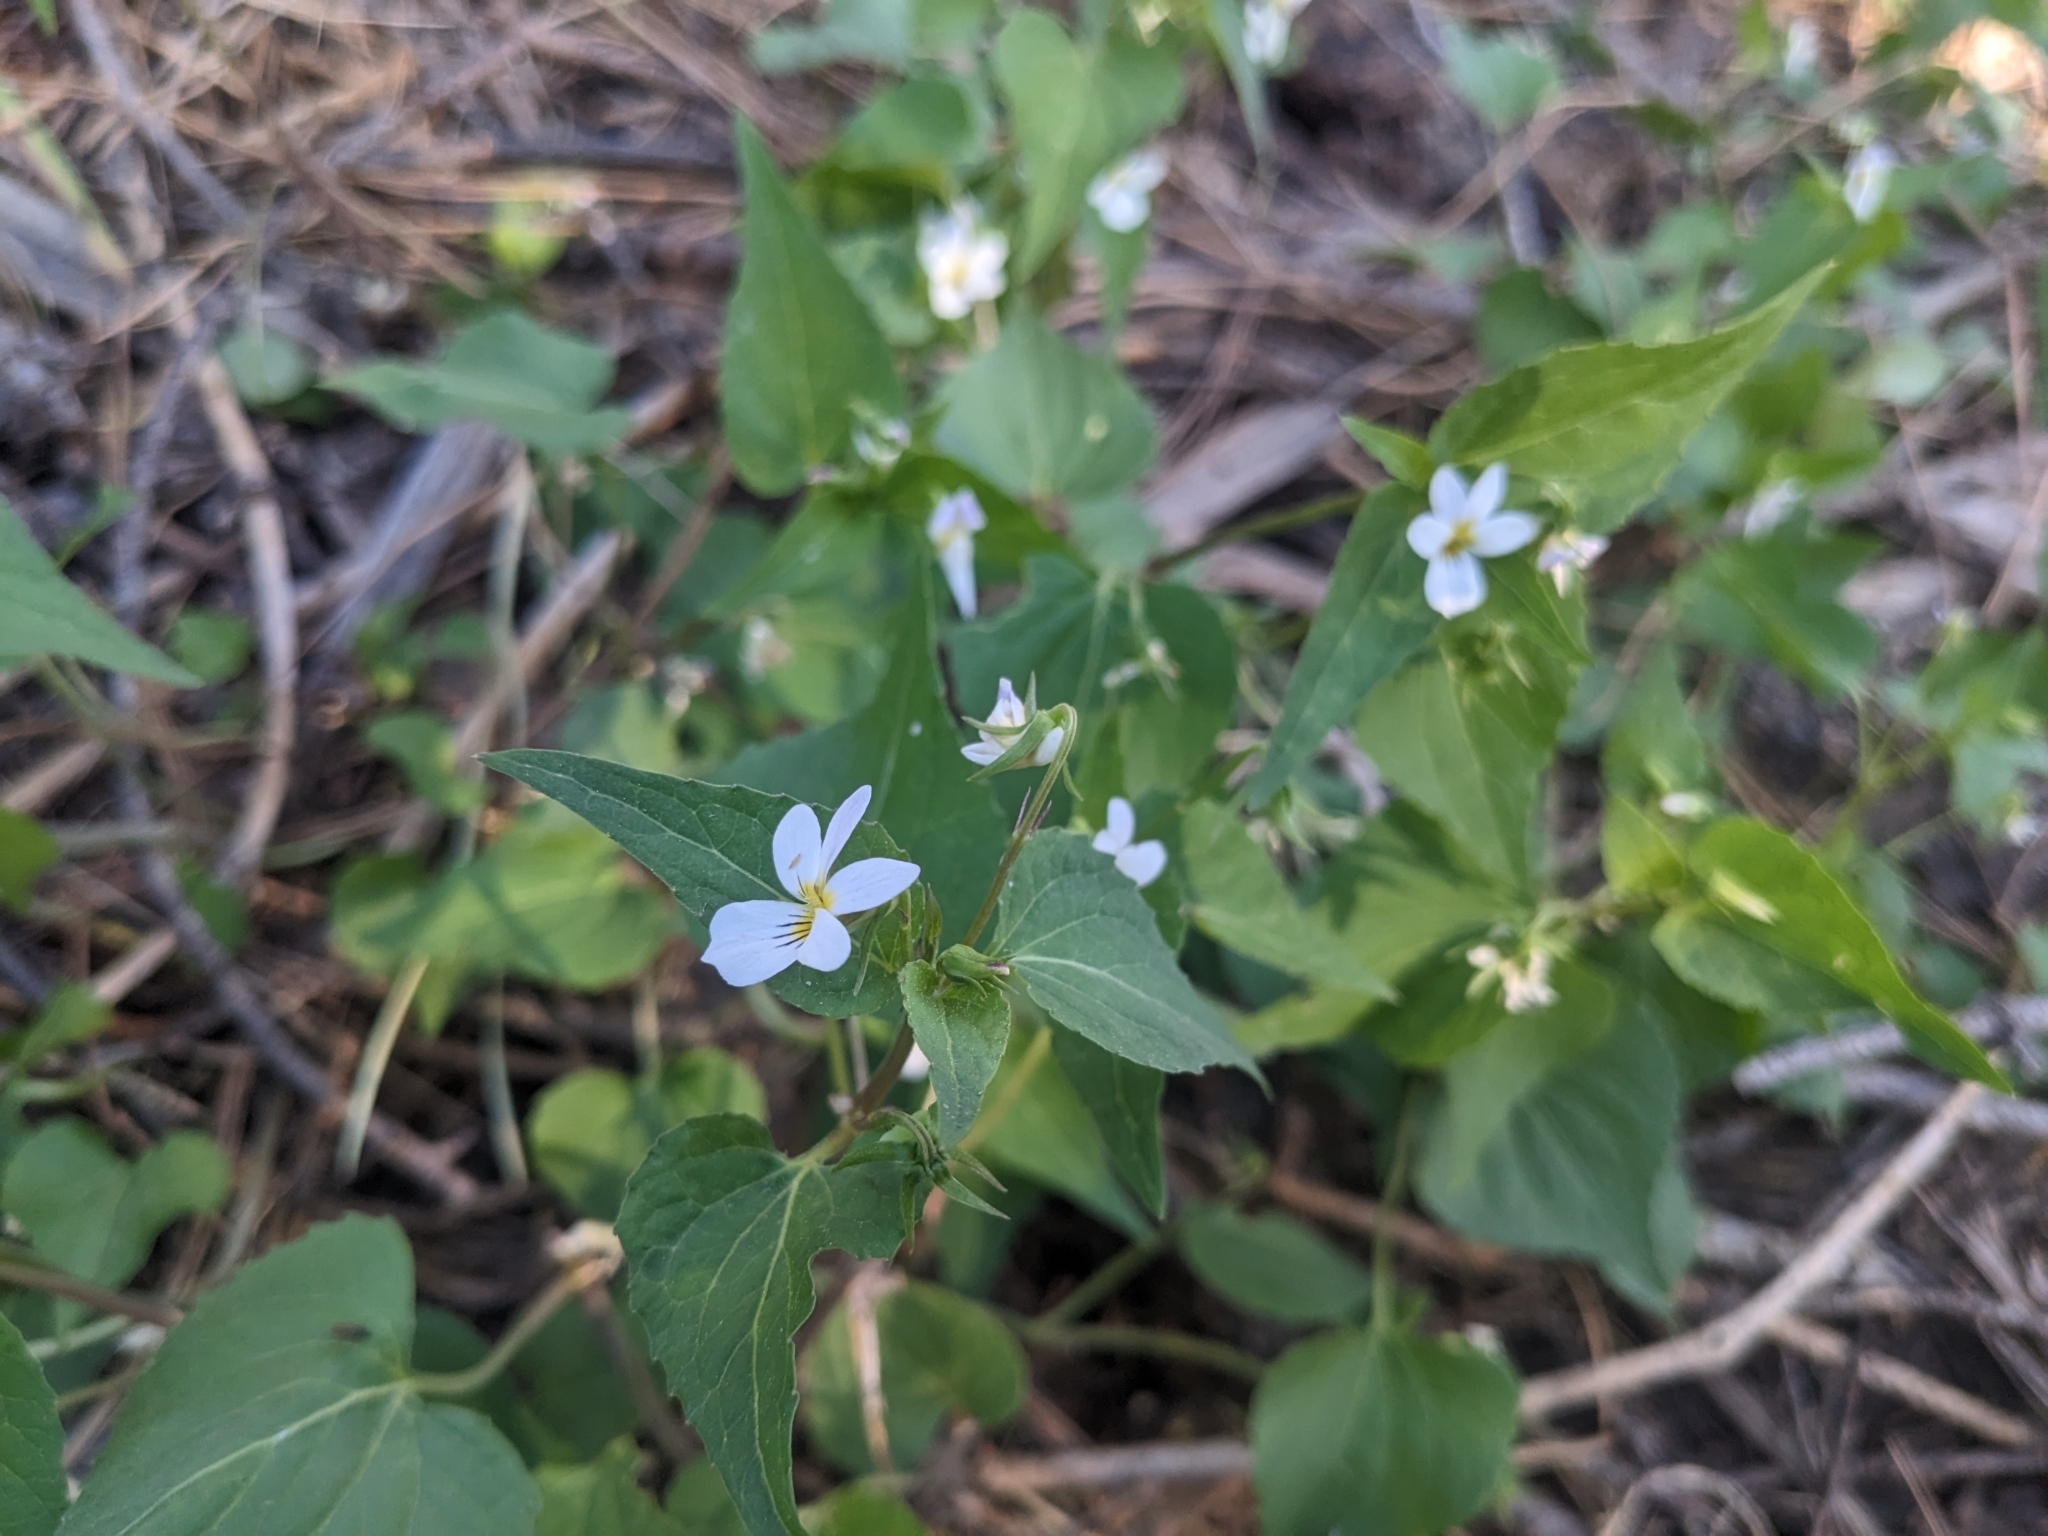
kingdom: Plantae
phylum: Tracheophyta
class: Magnoliopsida
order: Malpighiales
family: Violaceae
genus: Viola
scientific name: Viola canadensis
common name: Canada violet
